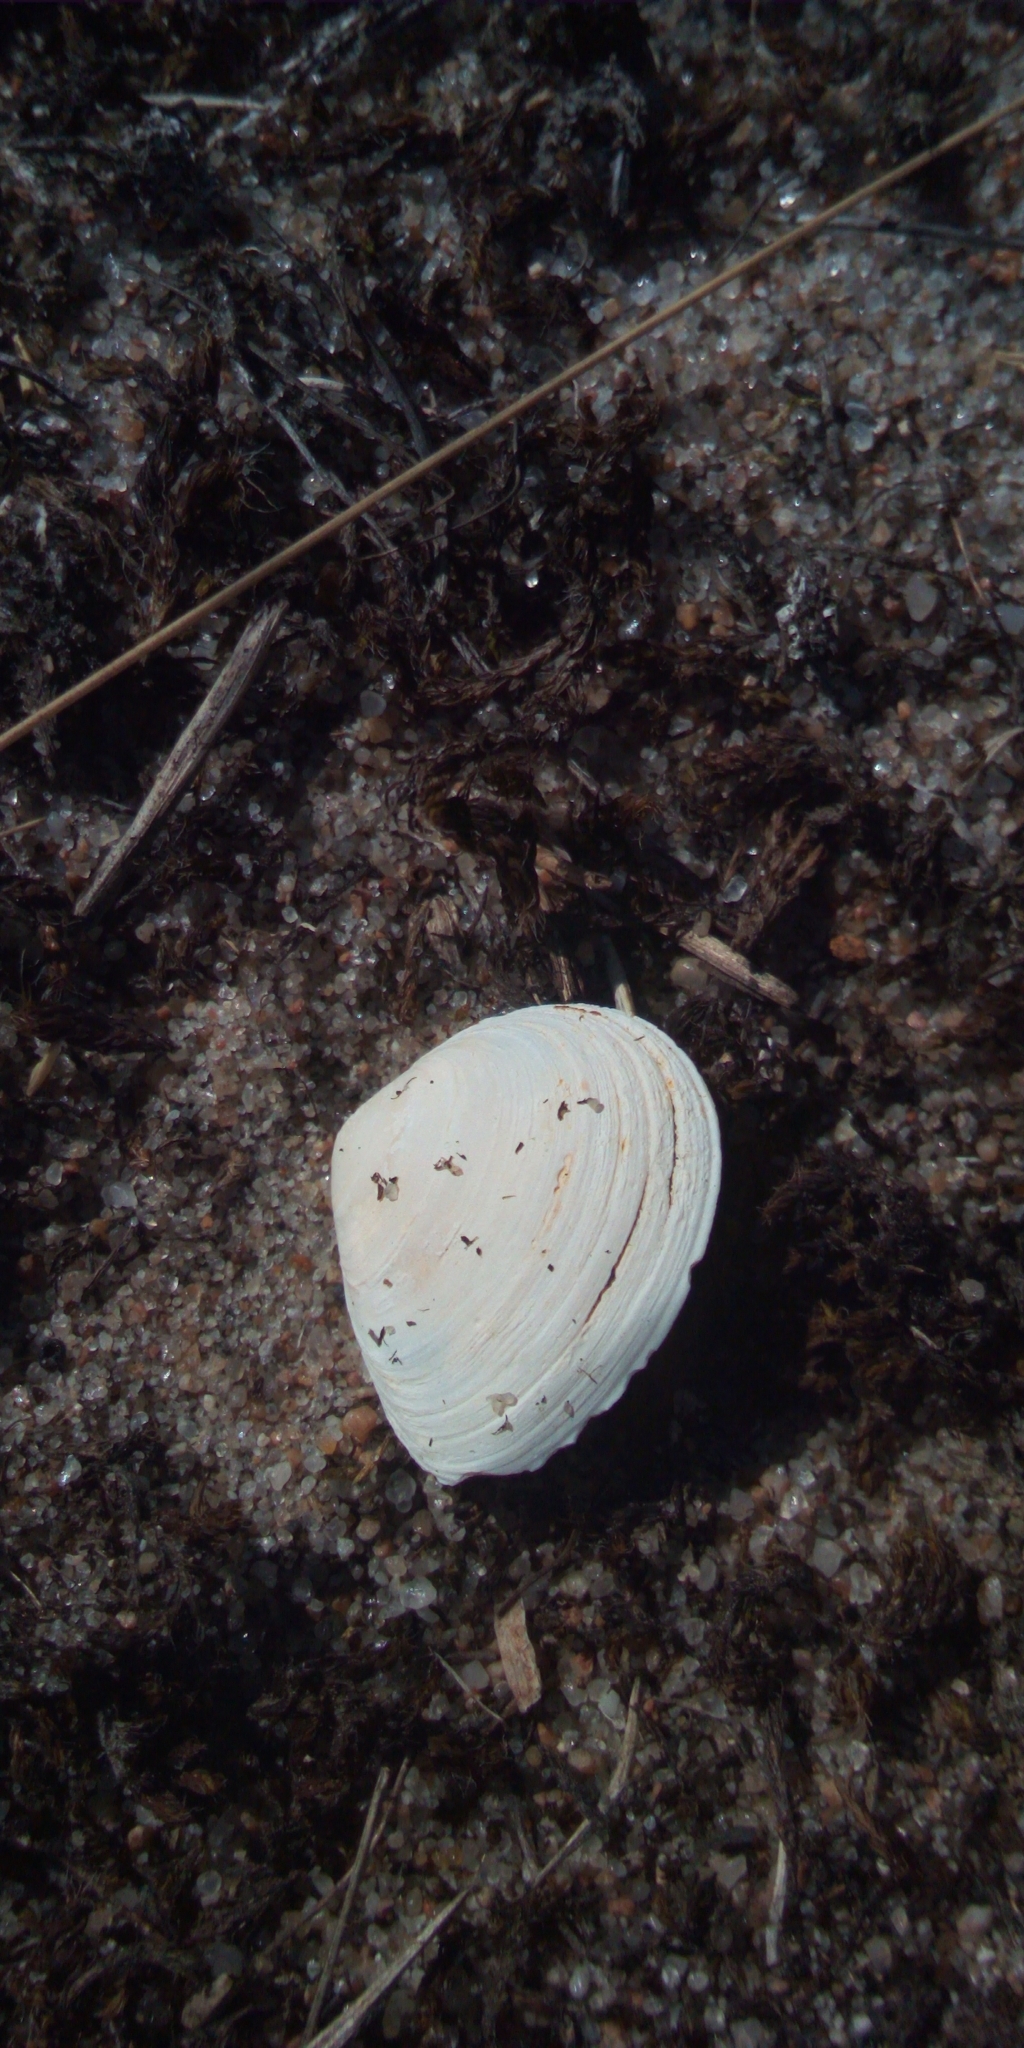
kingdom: Animalia
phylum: Mollusca
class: Bivalvia
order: Cardiida
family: Tellinidae
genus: Macoma
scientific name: Macoma balthica
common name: Baltic tellin
